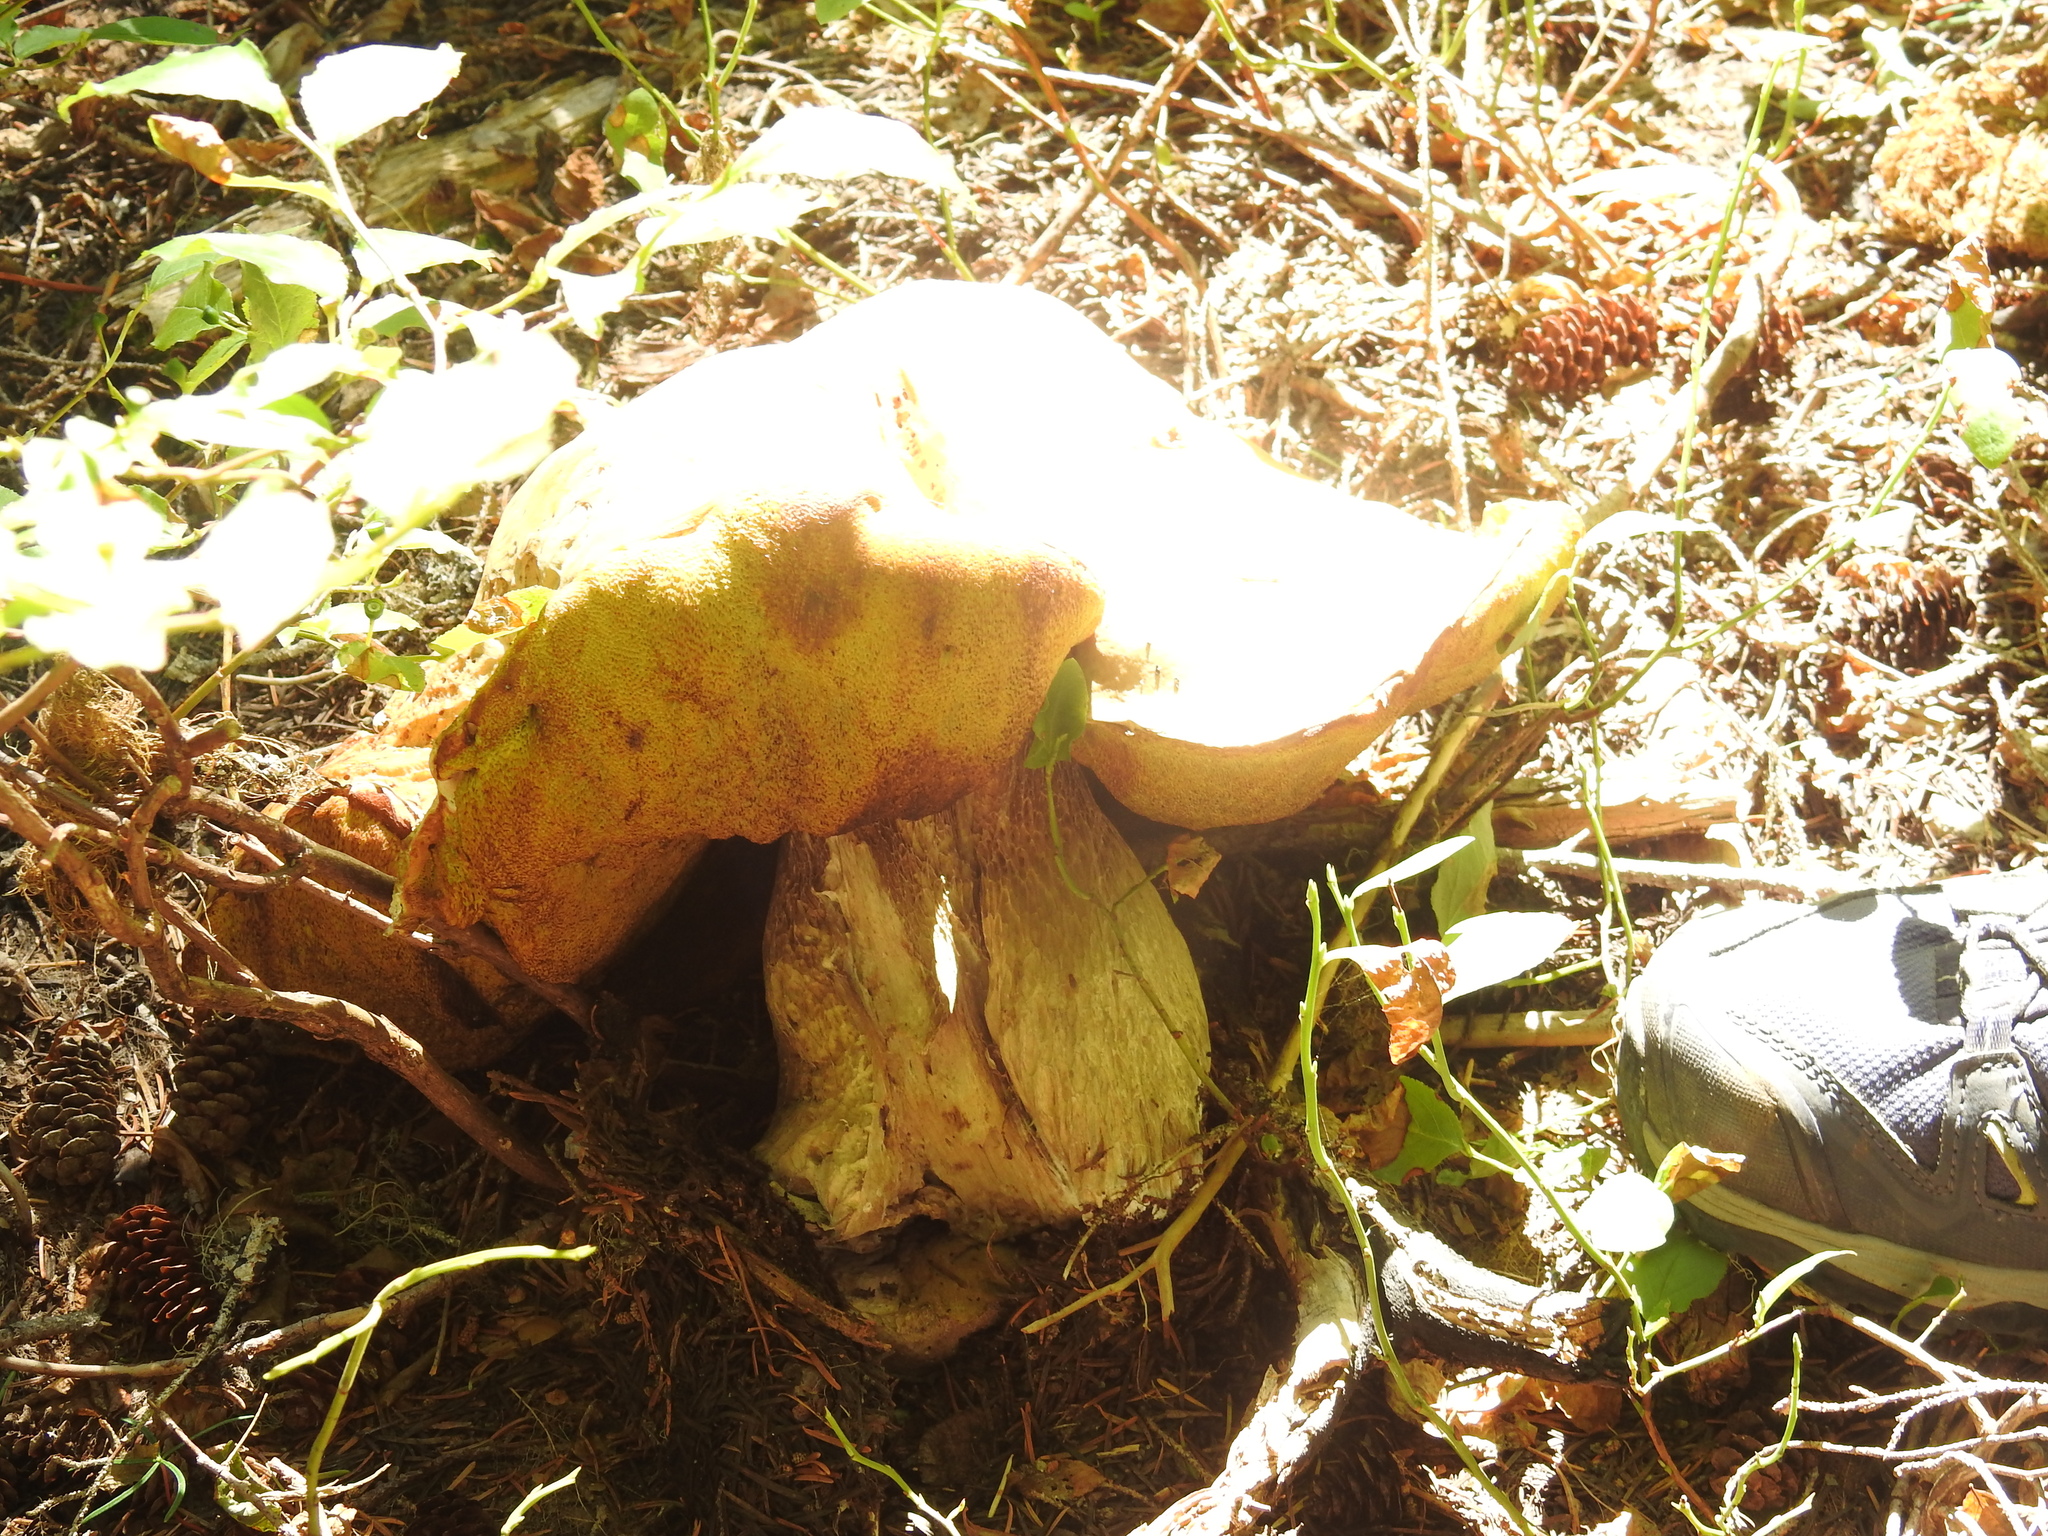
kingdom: Fungi
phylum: Basidiomycota
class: Agaricomycetes
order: Boletales
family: Boletaceae
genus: Boletus
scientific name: Boletus edulis
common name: Cep
